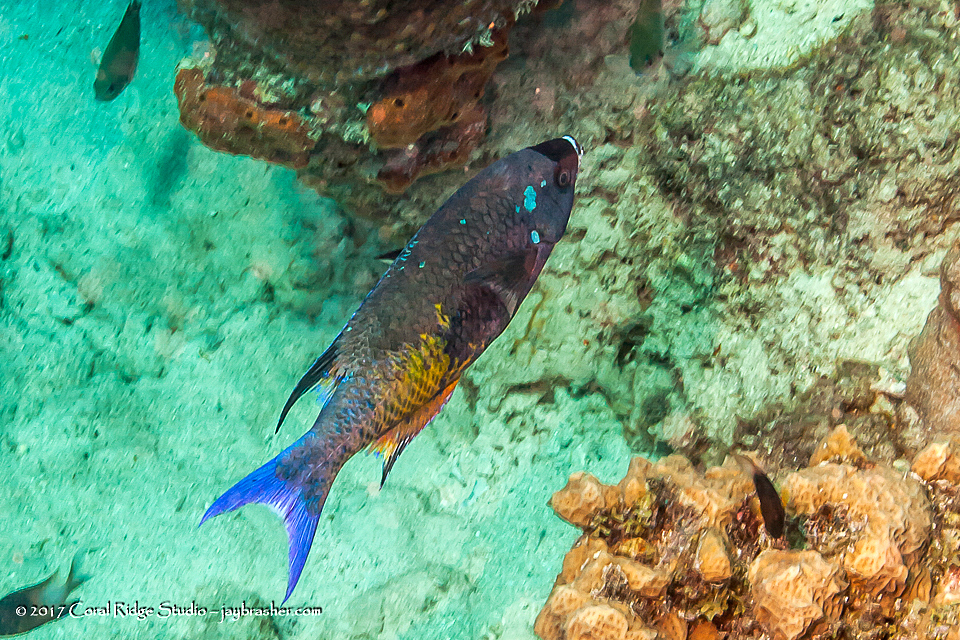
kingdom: Animalia
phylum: Chordata
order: Perciformes
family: Labridae
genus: Bodianus
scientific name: Bodianus
